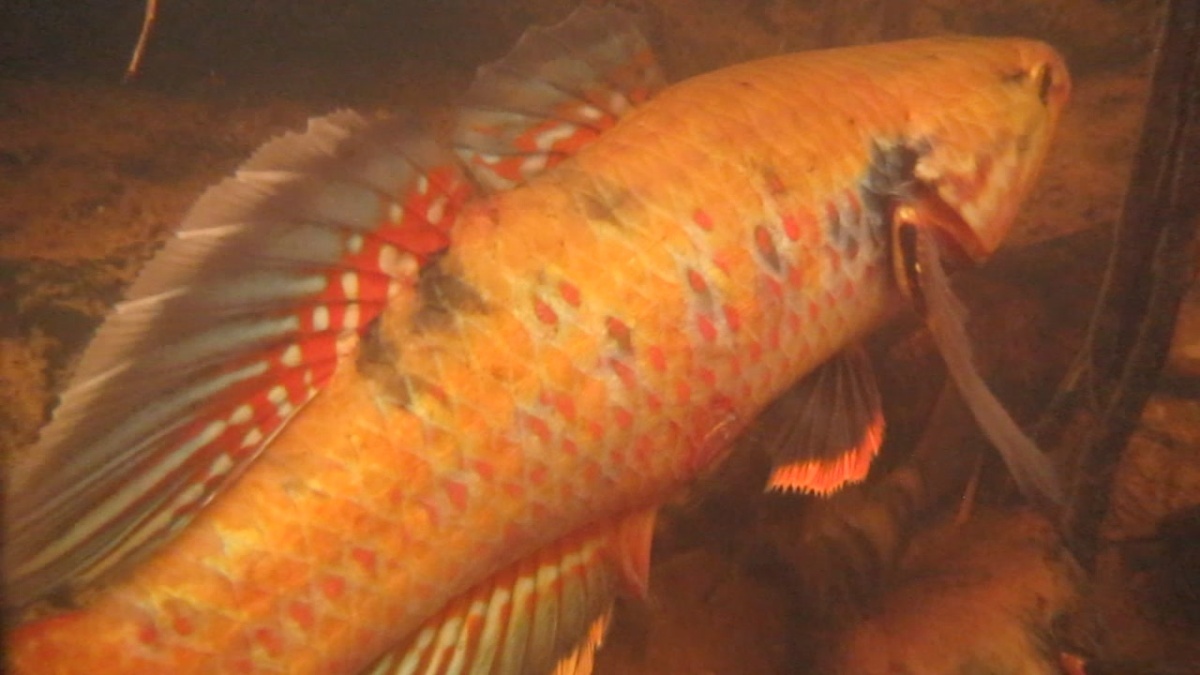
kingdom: Animalia
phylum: Chordata
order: Perciformes
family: Eleotridae
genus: Giuris
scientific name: Giuris
